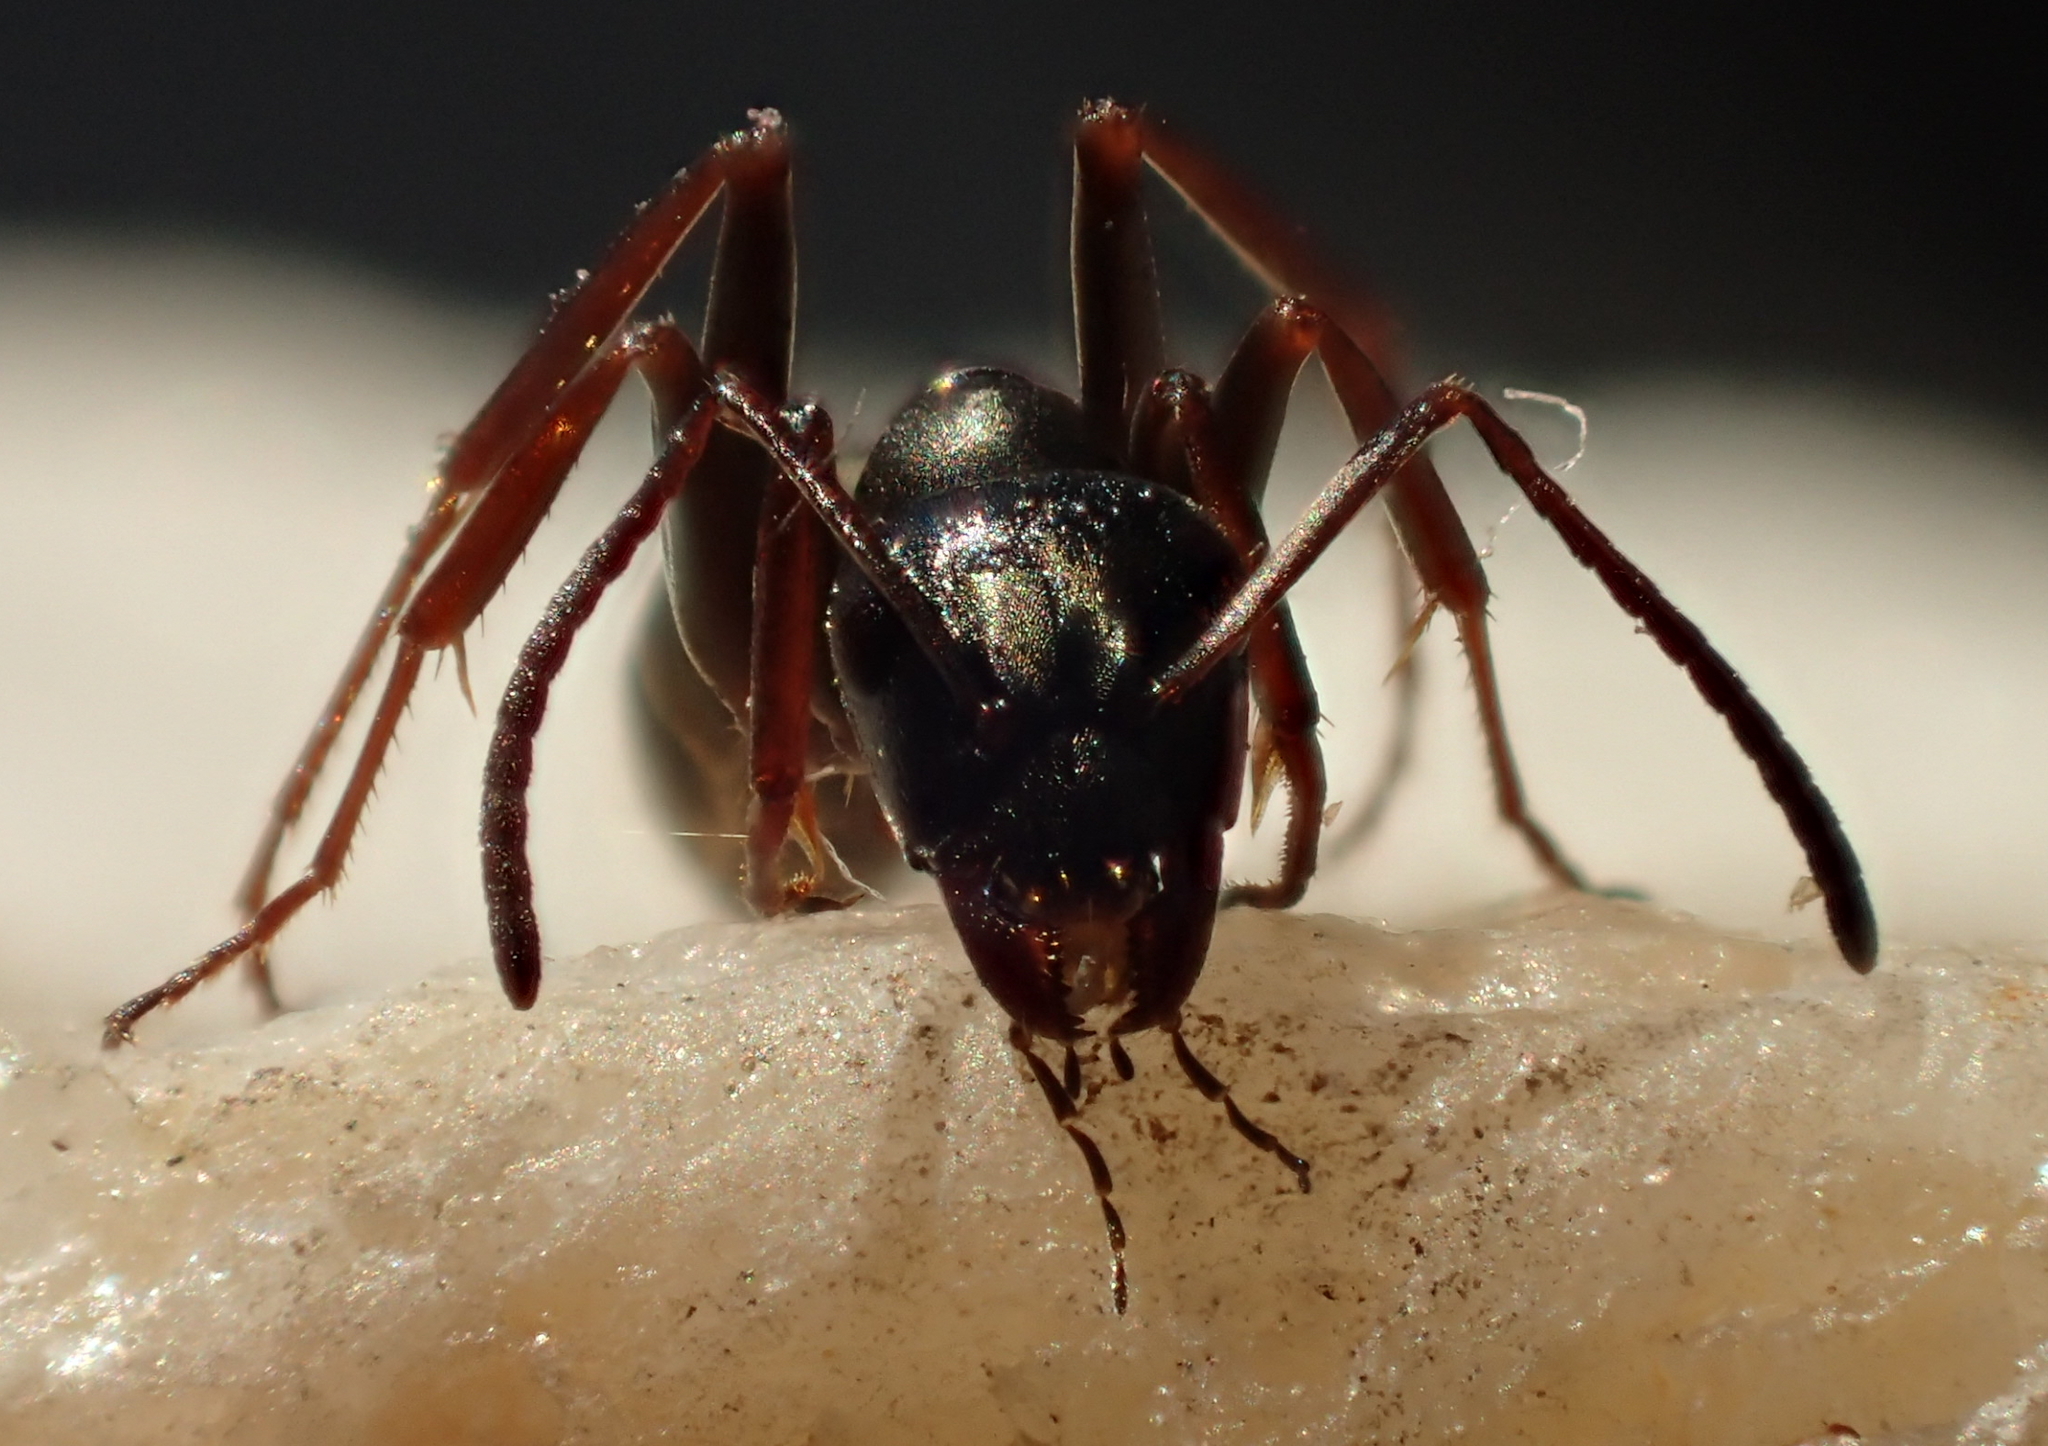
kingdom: Animalia
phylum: Arthropoda
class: Insecta
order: Hymenoptera
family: Formicidae
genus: Formica
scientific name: Formica fusca
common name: Silky ant
